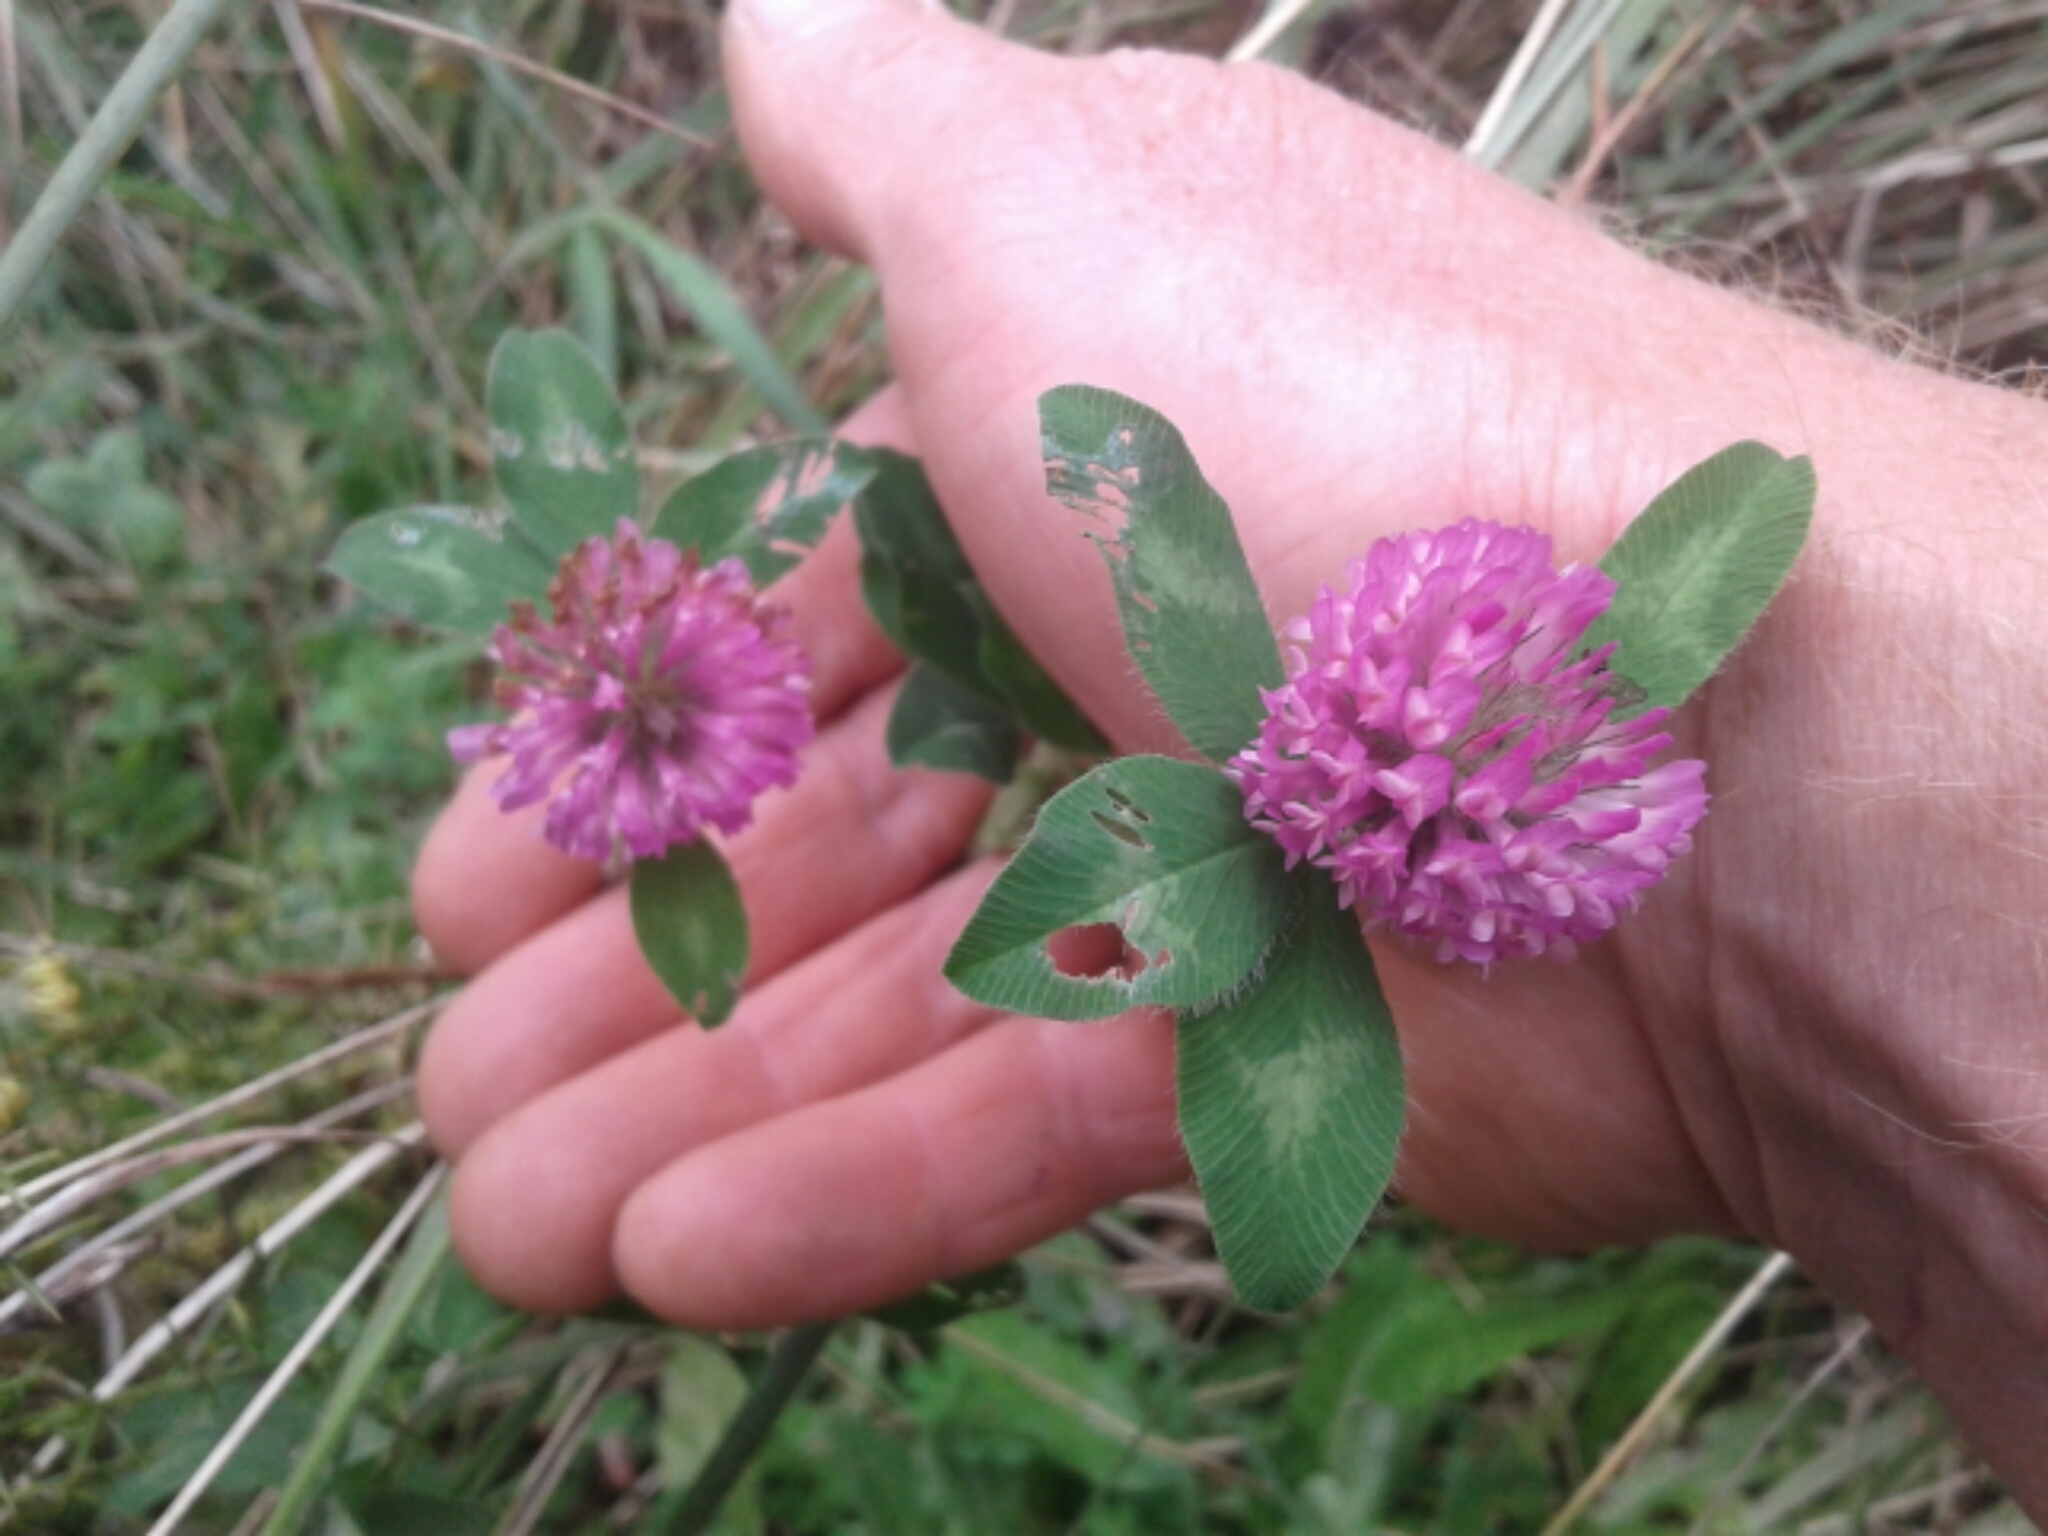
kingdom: Plantae
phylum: Tracheophyta
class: Magnoliopsida
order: Fabales
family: Fabaceae
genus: Trifolium
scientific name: Trifolium pratense
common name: Red clover
